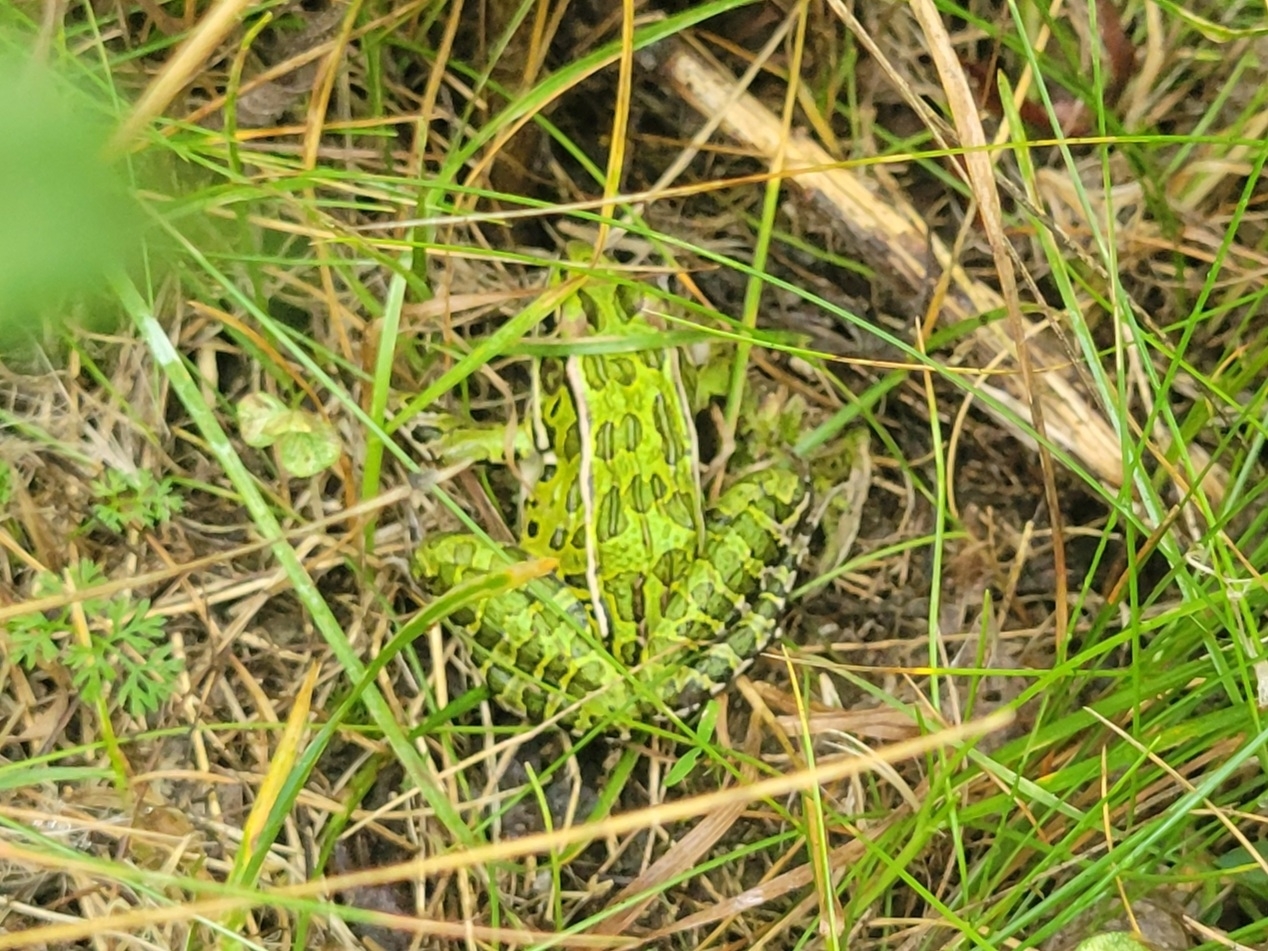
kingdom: Animalia
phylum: Chordata
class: Amphibia
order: Anura
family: Ranidae
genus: Lithobates
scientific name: Lithobates pipiens
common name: Northern leopard frog
